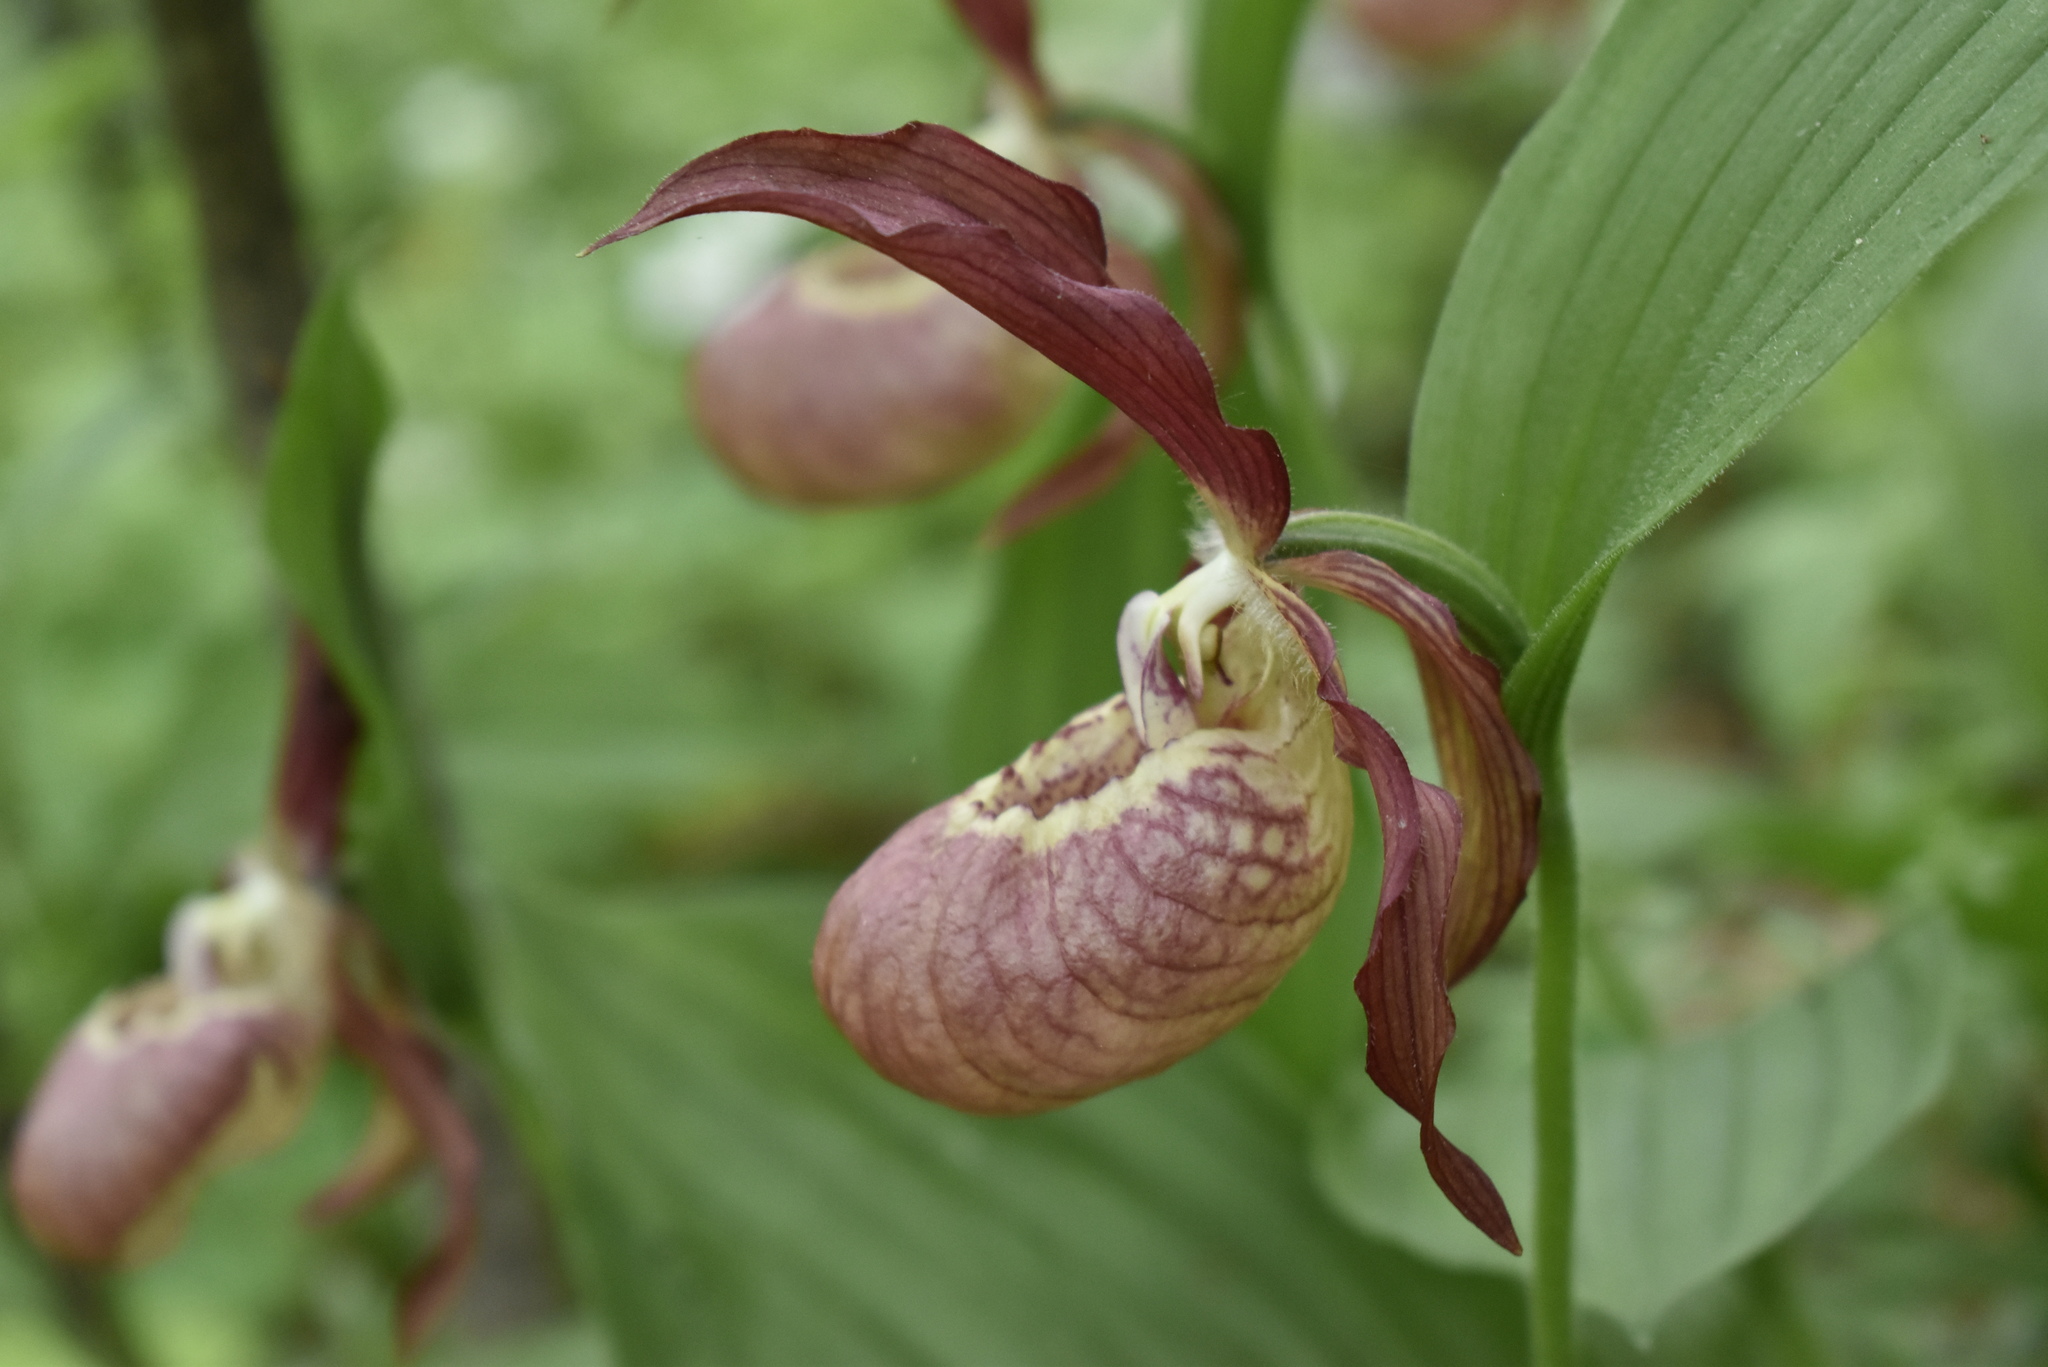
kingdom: Plantae
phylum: Tracheophyta
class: Liliopsida
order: Asparagales
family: Orchidaceae
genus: Cypripedium
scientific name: Cypripedium ventricosum
